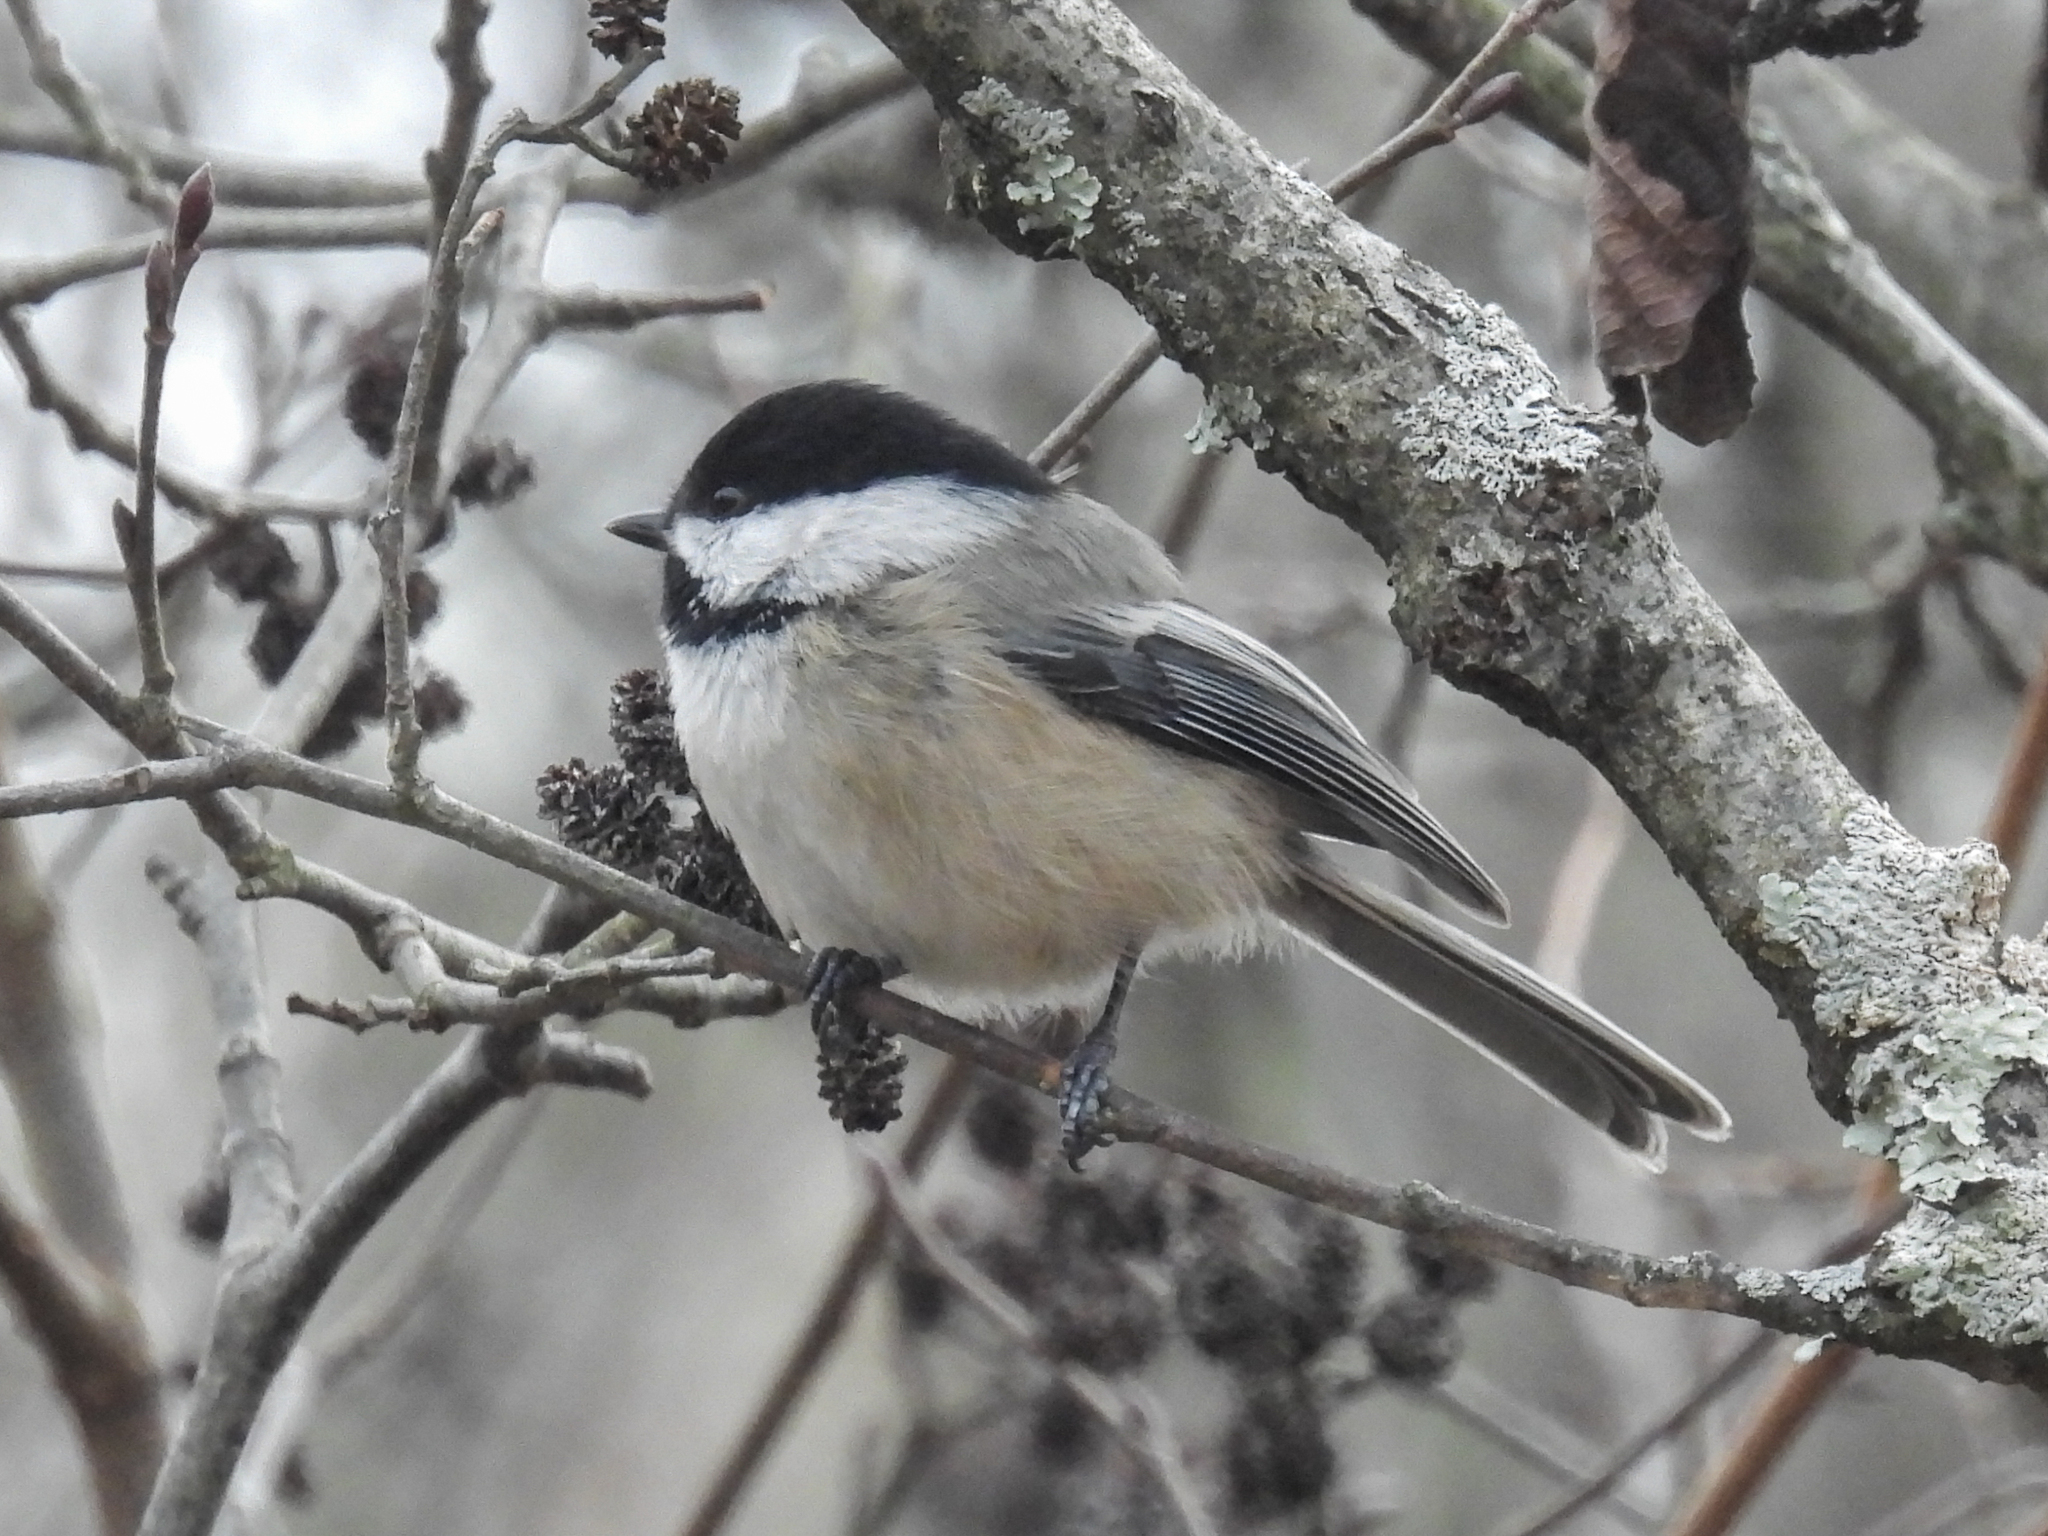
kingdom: Animalia
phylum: Chordata
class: Aves
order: Passeriformes
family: Paridae
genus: Poecile
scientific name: Poecile atricapillus
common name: Black-capped chickadee
